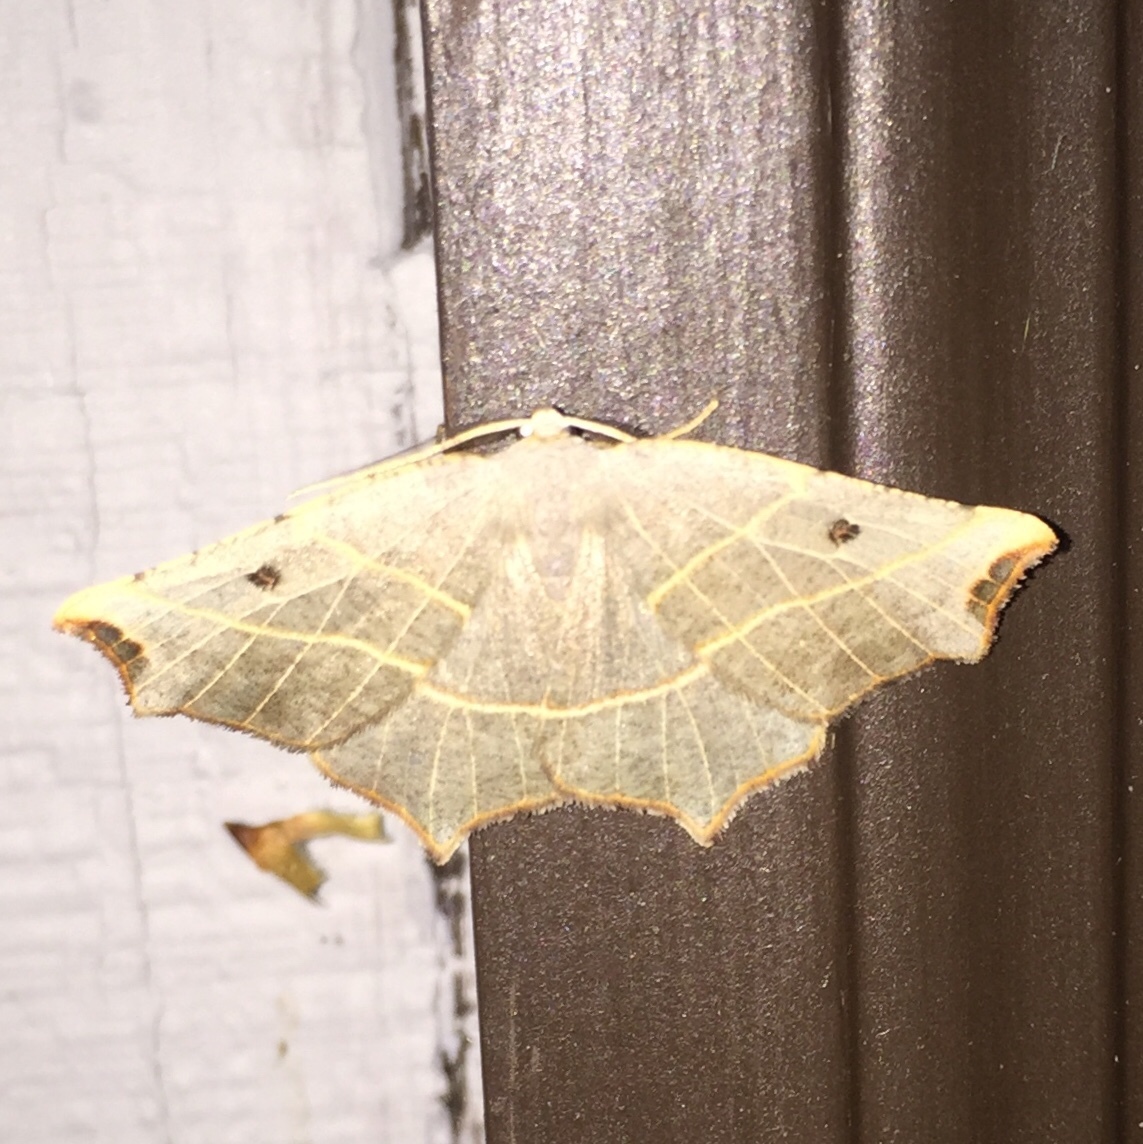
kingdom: Animalia
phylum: Arthropoda
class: Insecta
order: Lepidoptera
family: Geometridae
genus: Metanema
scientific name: Metanema inatomaria
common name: Pale metanema
